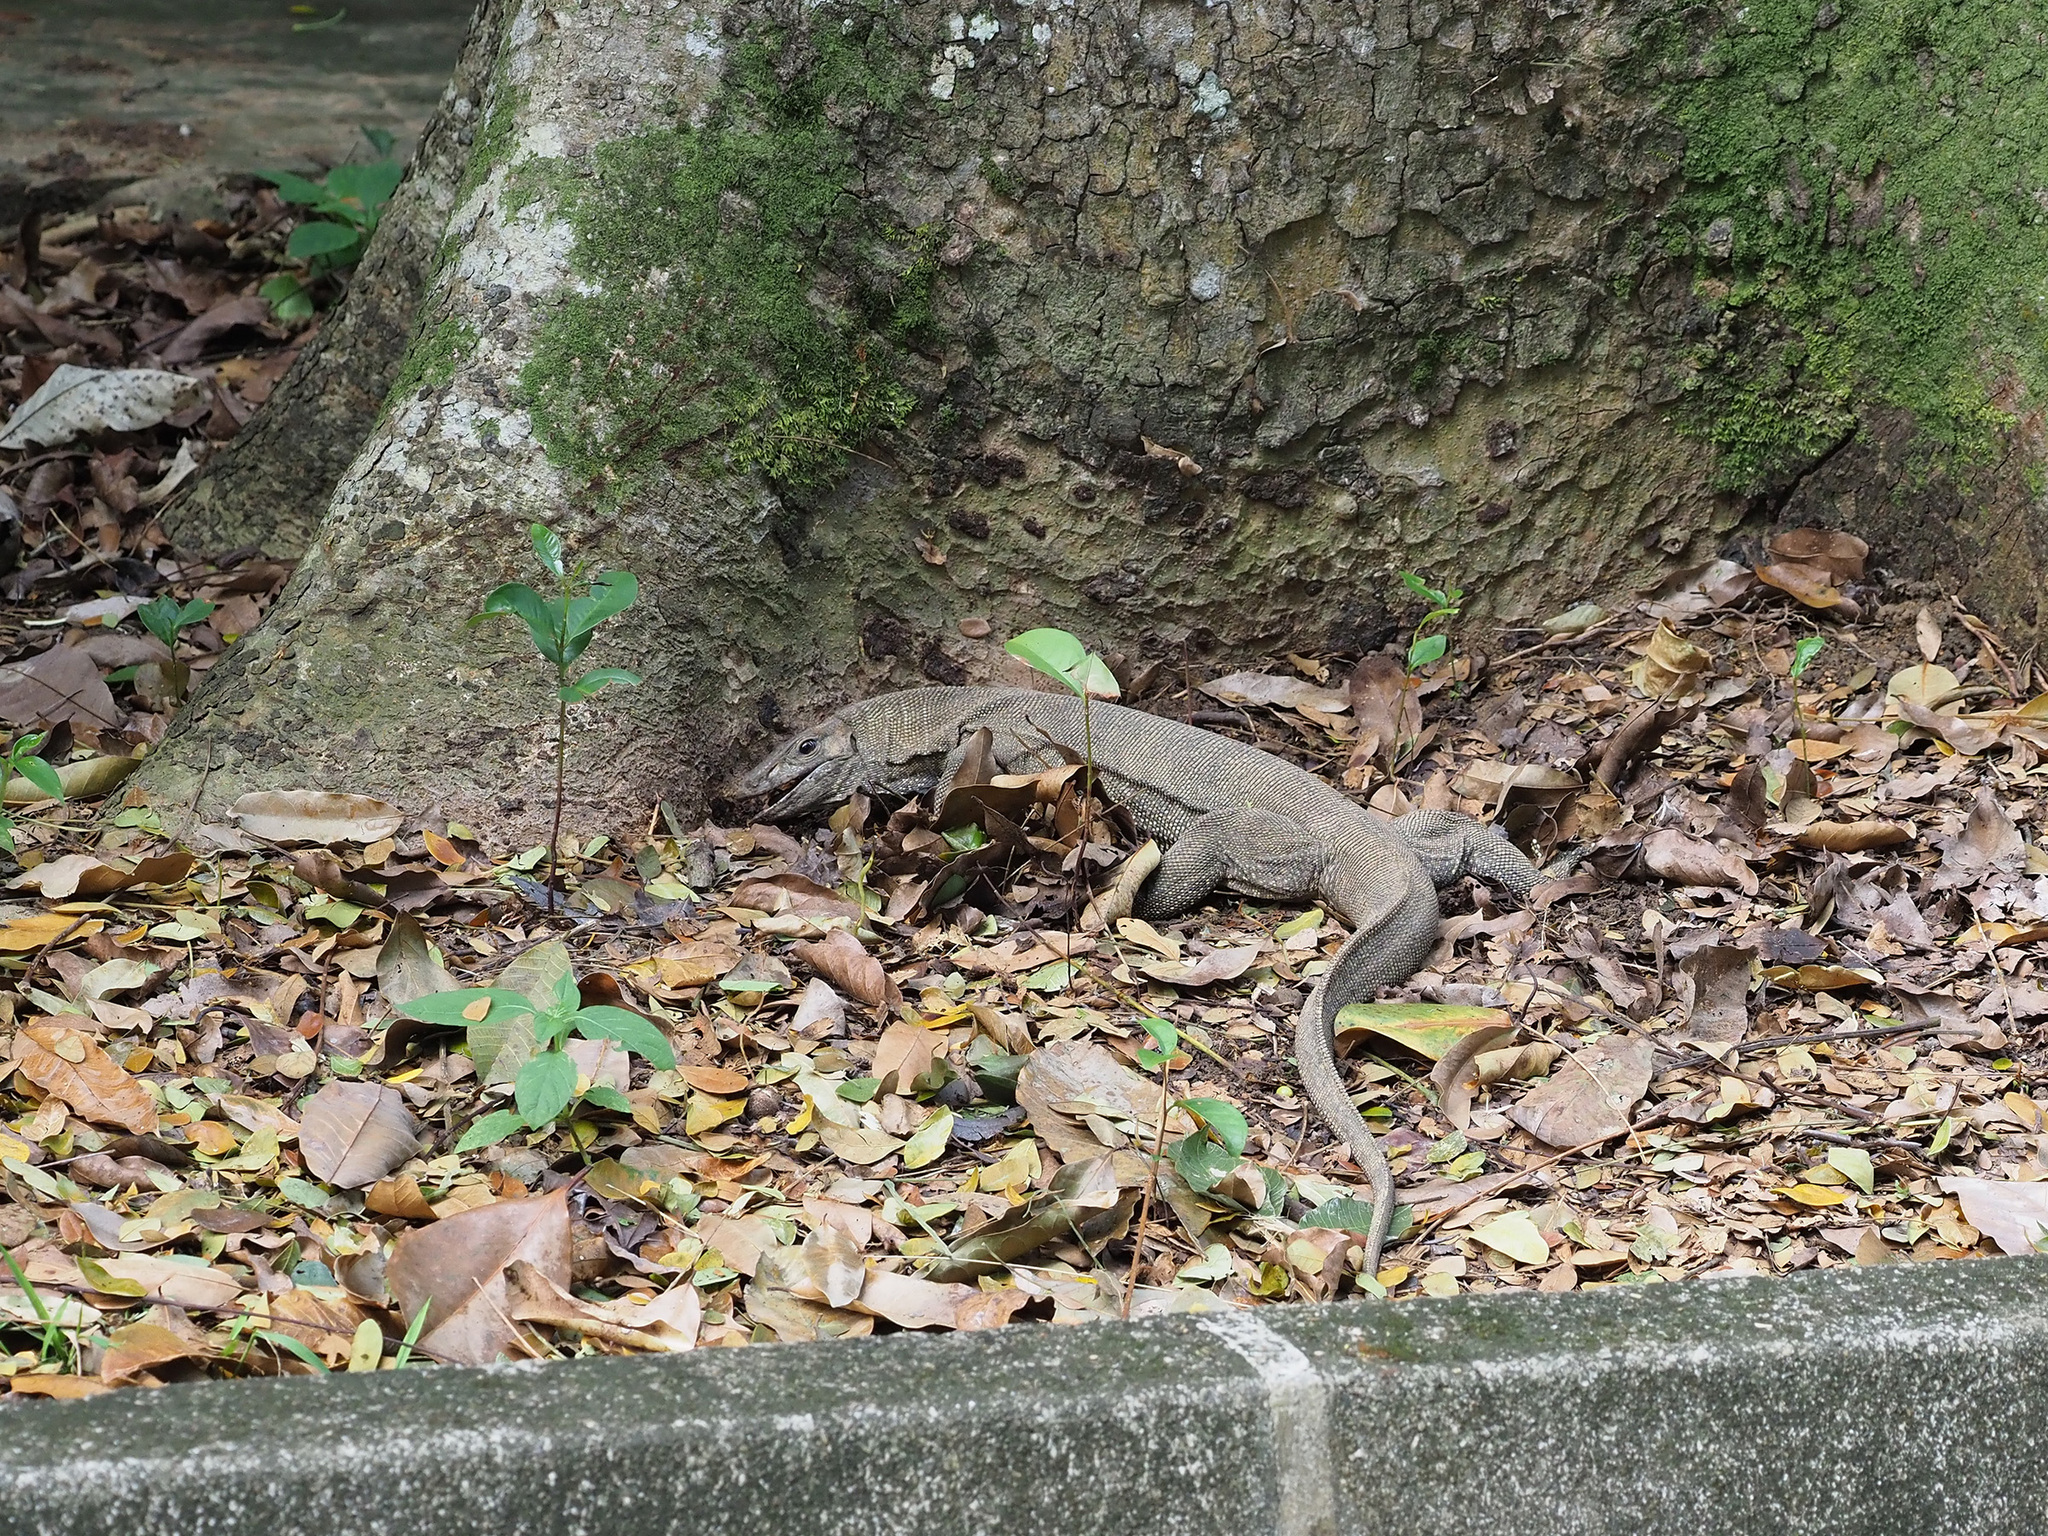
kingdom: Animalia
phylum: Chordata
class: Squamata
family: Varanidae
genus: Varanus
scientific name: Varanus nebulosus
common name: Clouded monitor
